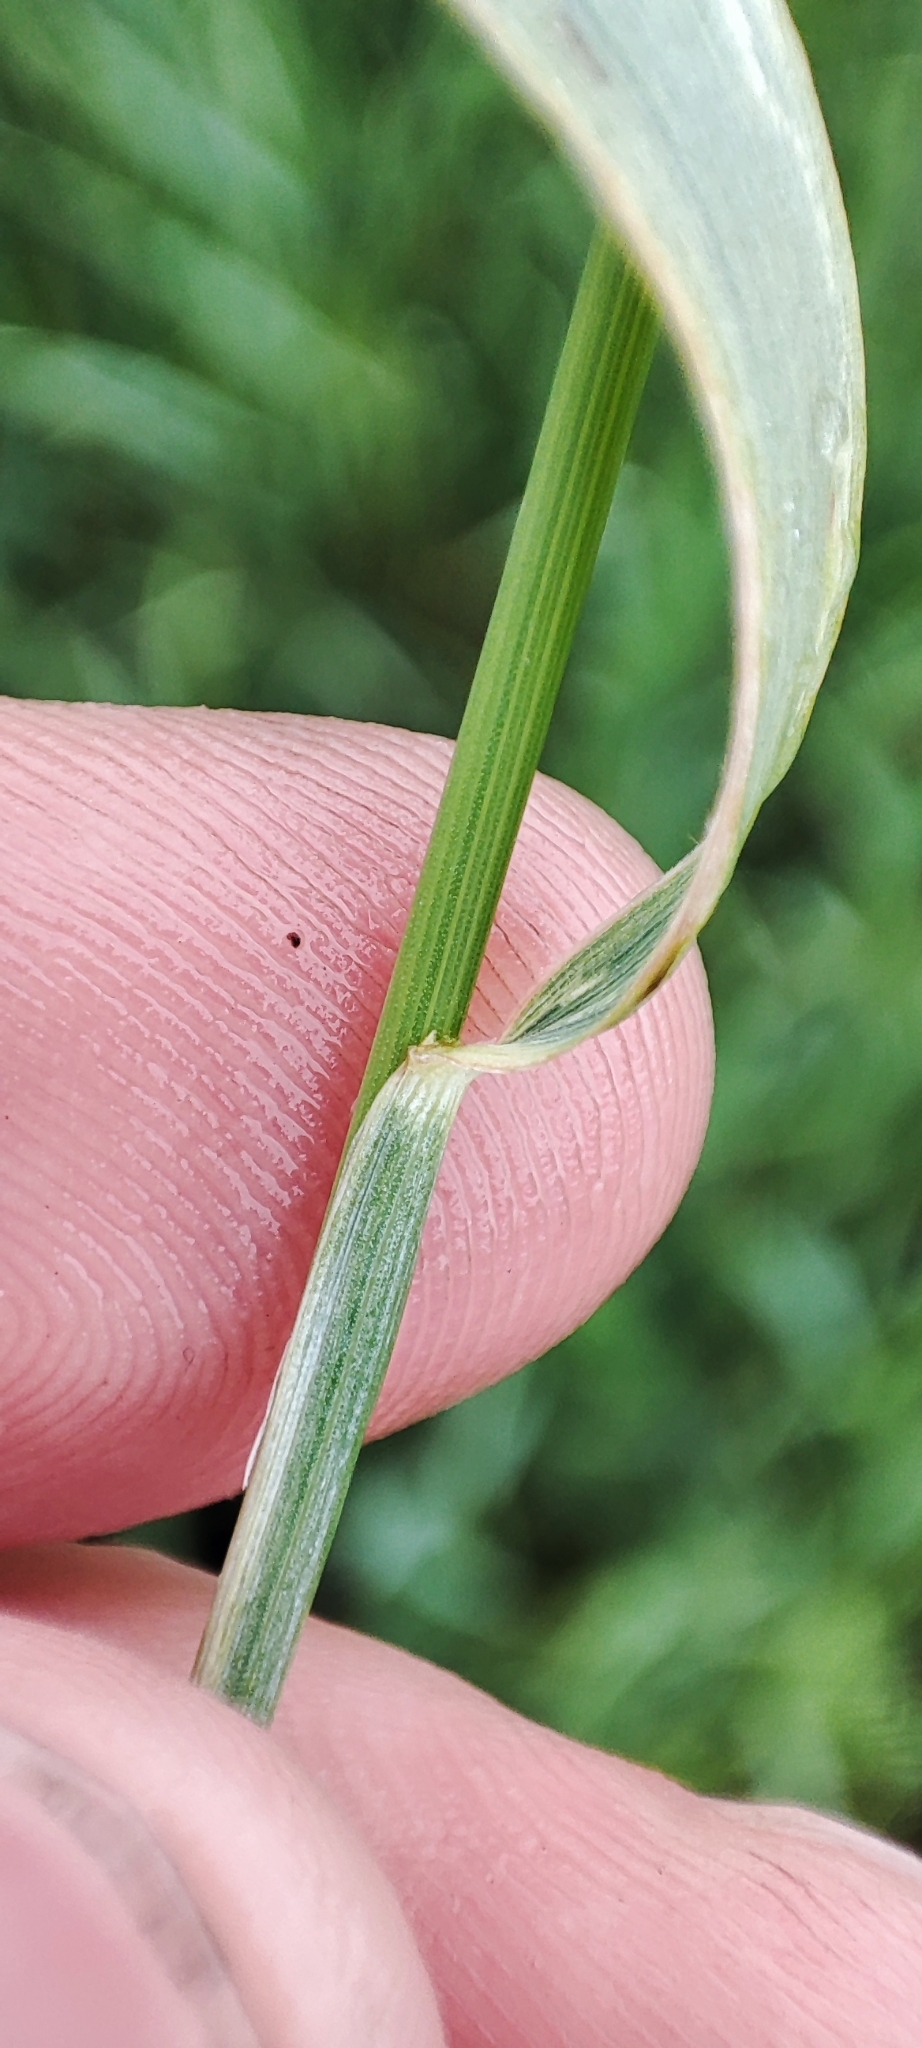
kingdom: Plantae
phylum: Tracheophyta
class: Liliopsida
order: Poales
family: Poaceae
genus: Elymus
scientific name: Elymus repens
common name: Quackgrass
